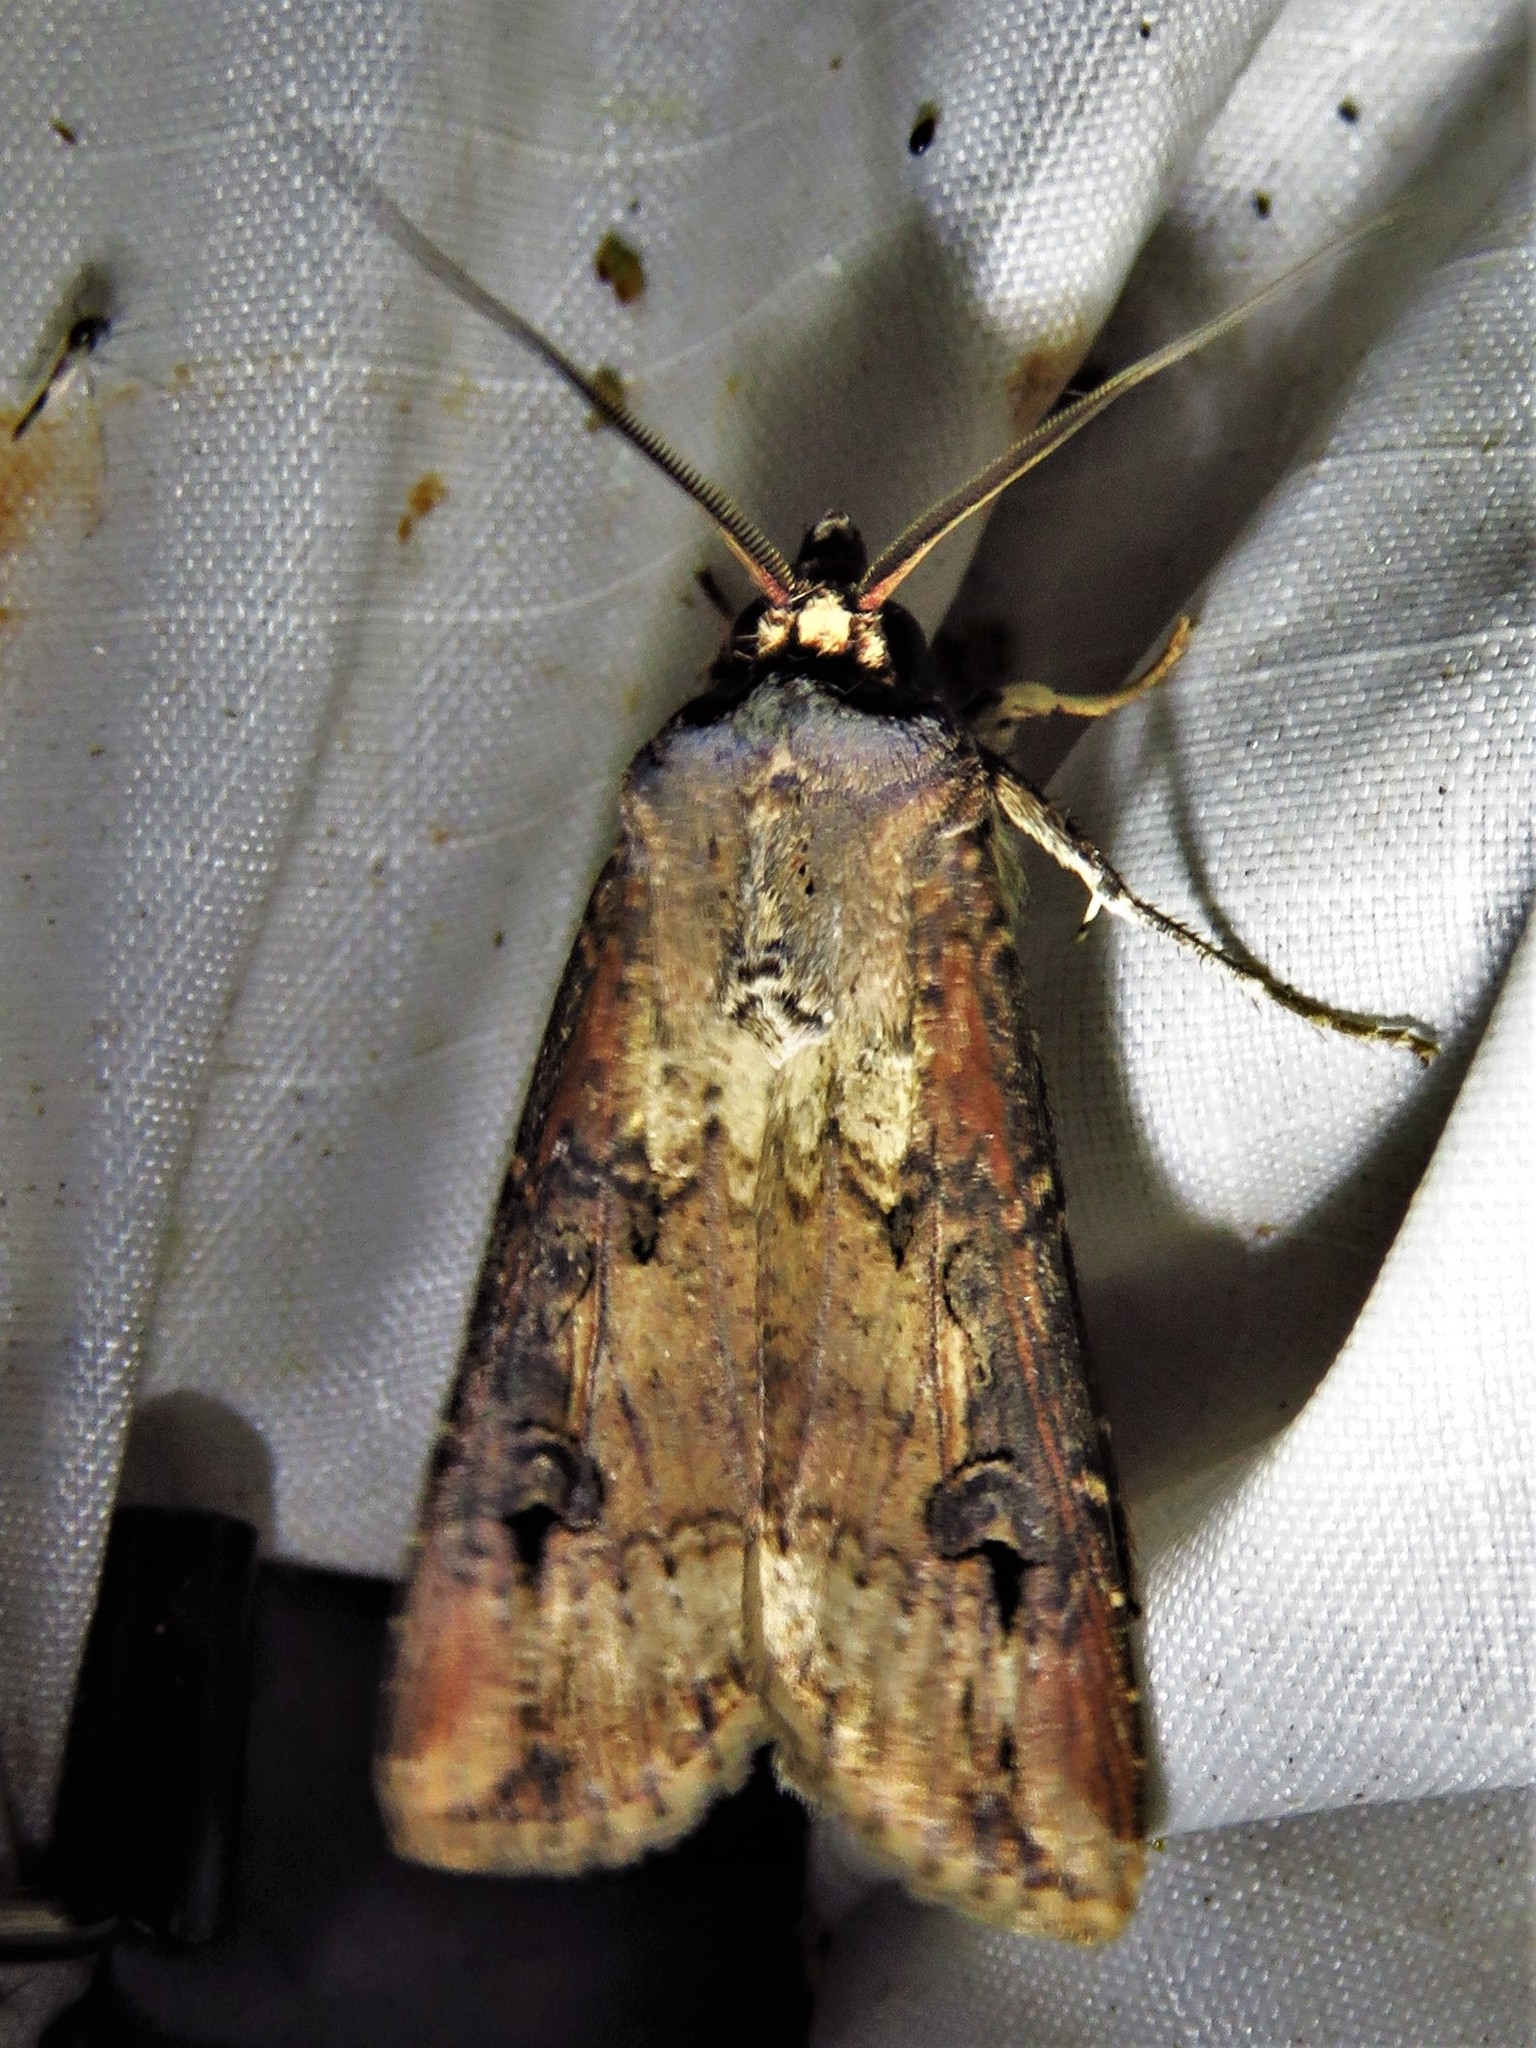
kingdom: Animalia
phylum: Arthropoda
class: Insecta
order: Lepidoptera
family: Noctuidae
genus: Agrotis
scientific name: Agrotis ipsilon
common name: Dark sword-grass
